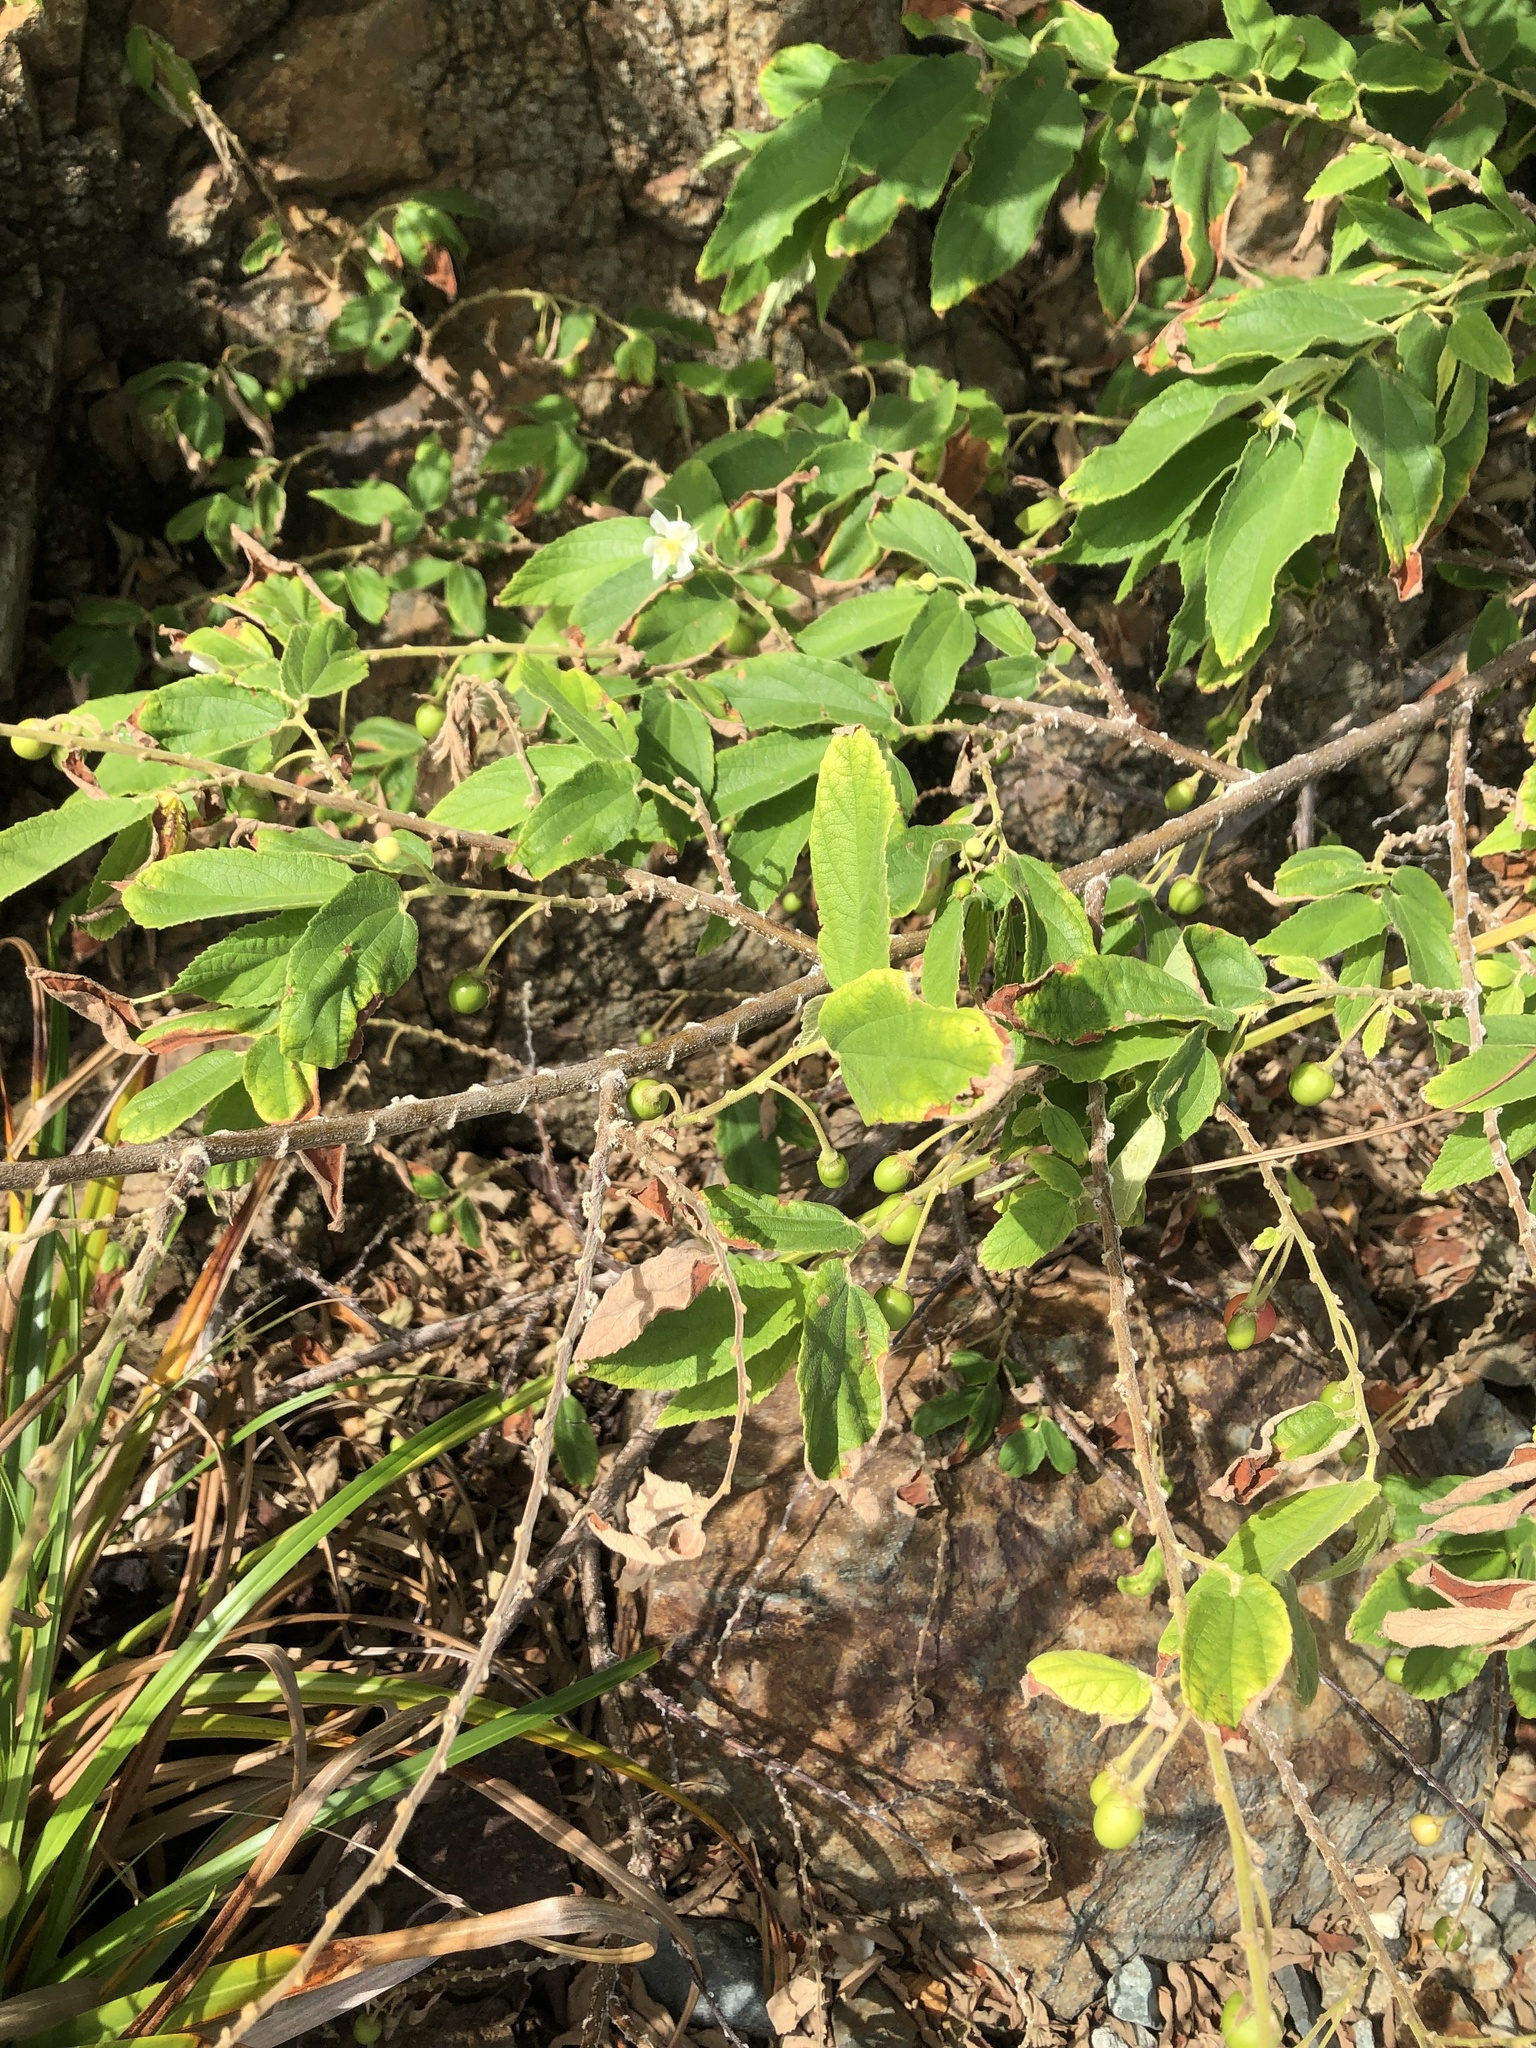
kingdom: Plantae
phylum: Tracheophyta
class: Magnoliopsida
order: Malvales
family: Muntingiaceae
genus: Muntingia
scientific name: Muntingia calabura
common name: Strawberrytree
